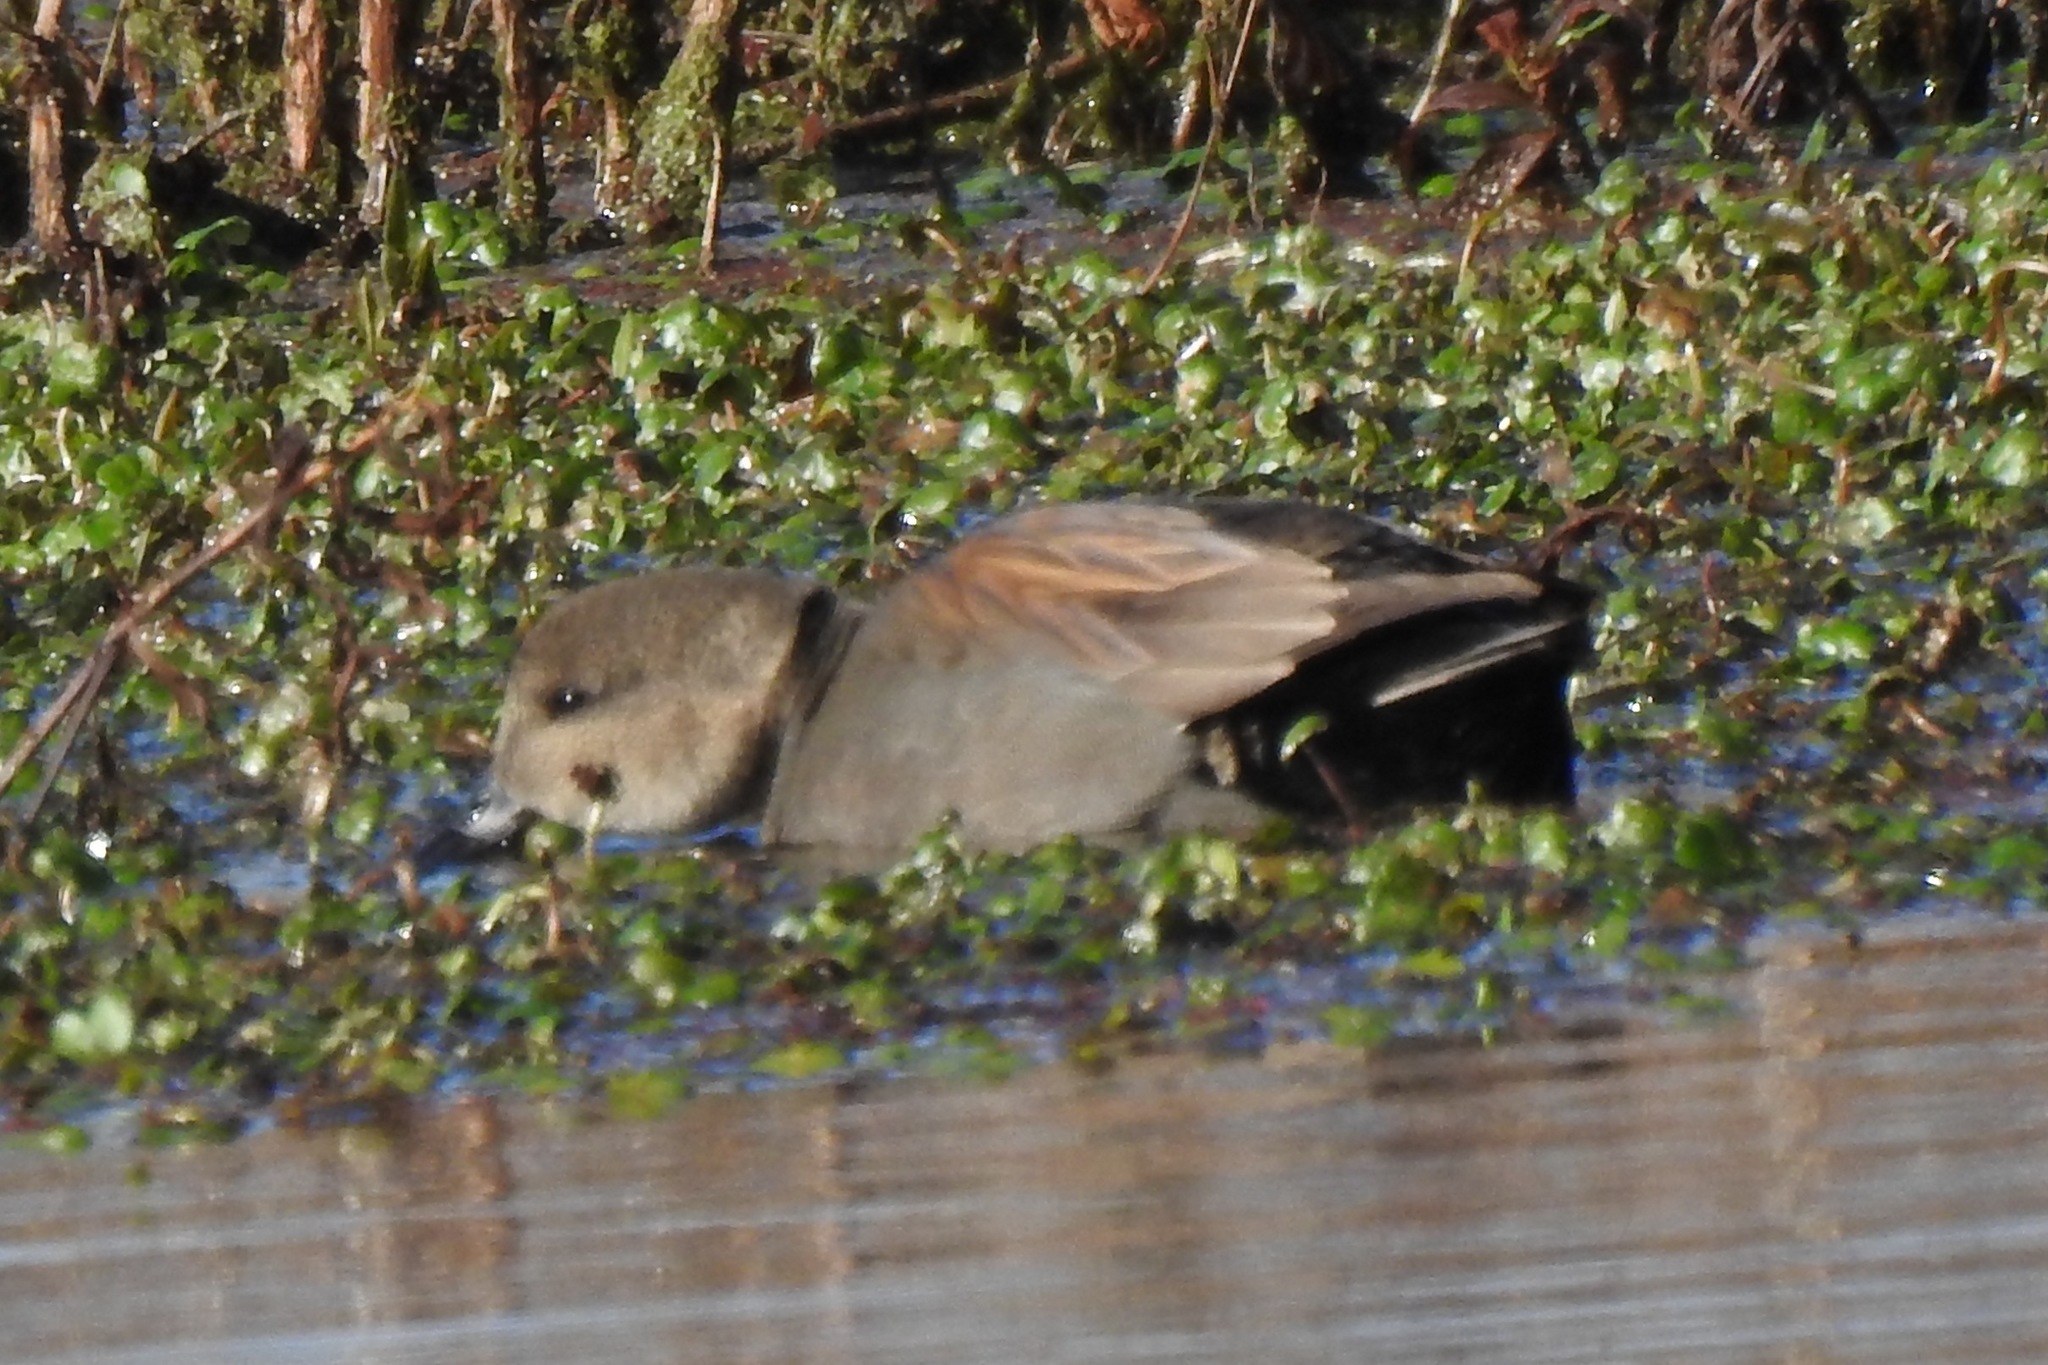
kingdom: Animalia
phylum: Chordata
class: Aves
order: Anseriformes
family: Anatidae
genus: Mareca
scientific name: Mareca strepera
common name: Gadwall
